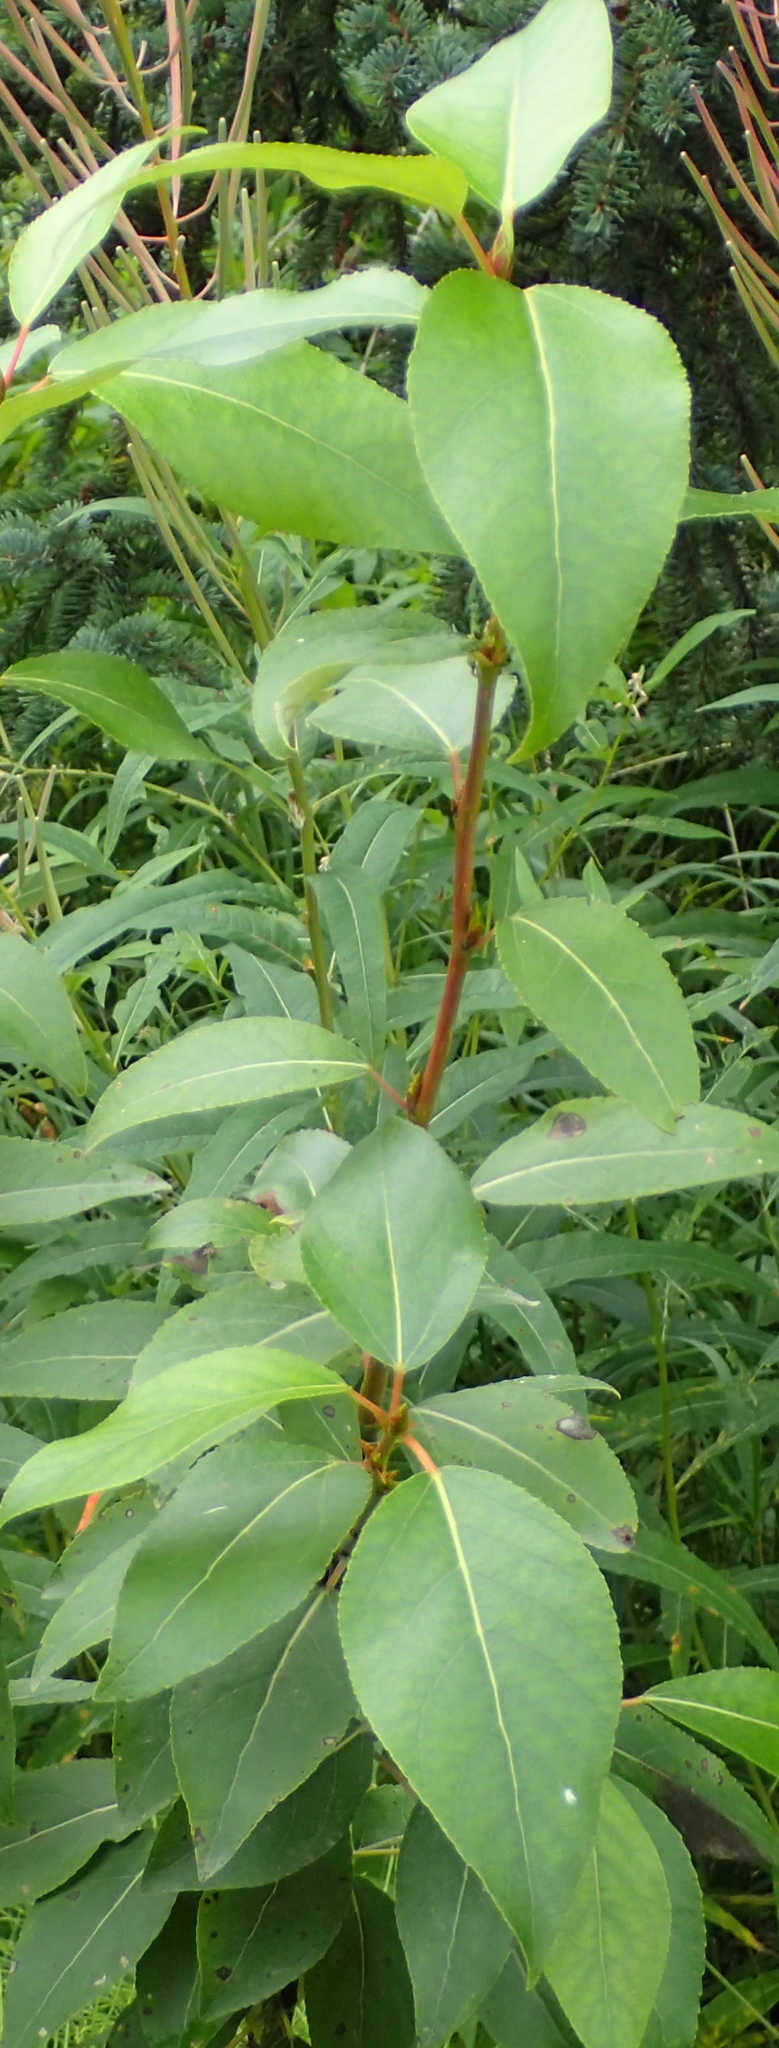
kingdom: Plantae
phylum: Tracheophyta
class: Magnoliopsida
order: Malpighiales
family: Salicaceae
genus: Populus
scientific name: Populus trichocarpa
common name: Black cottonwood
